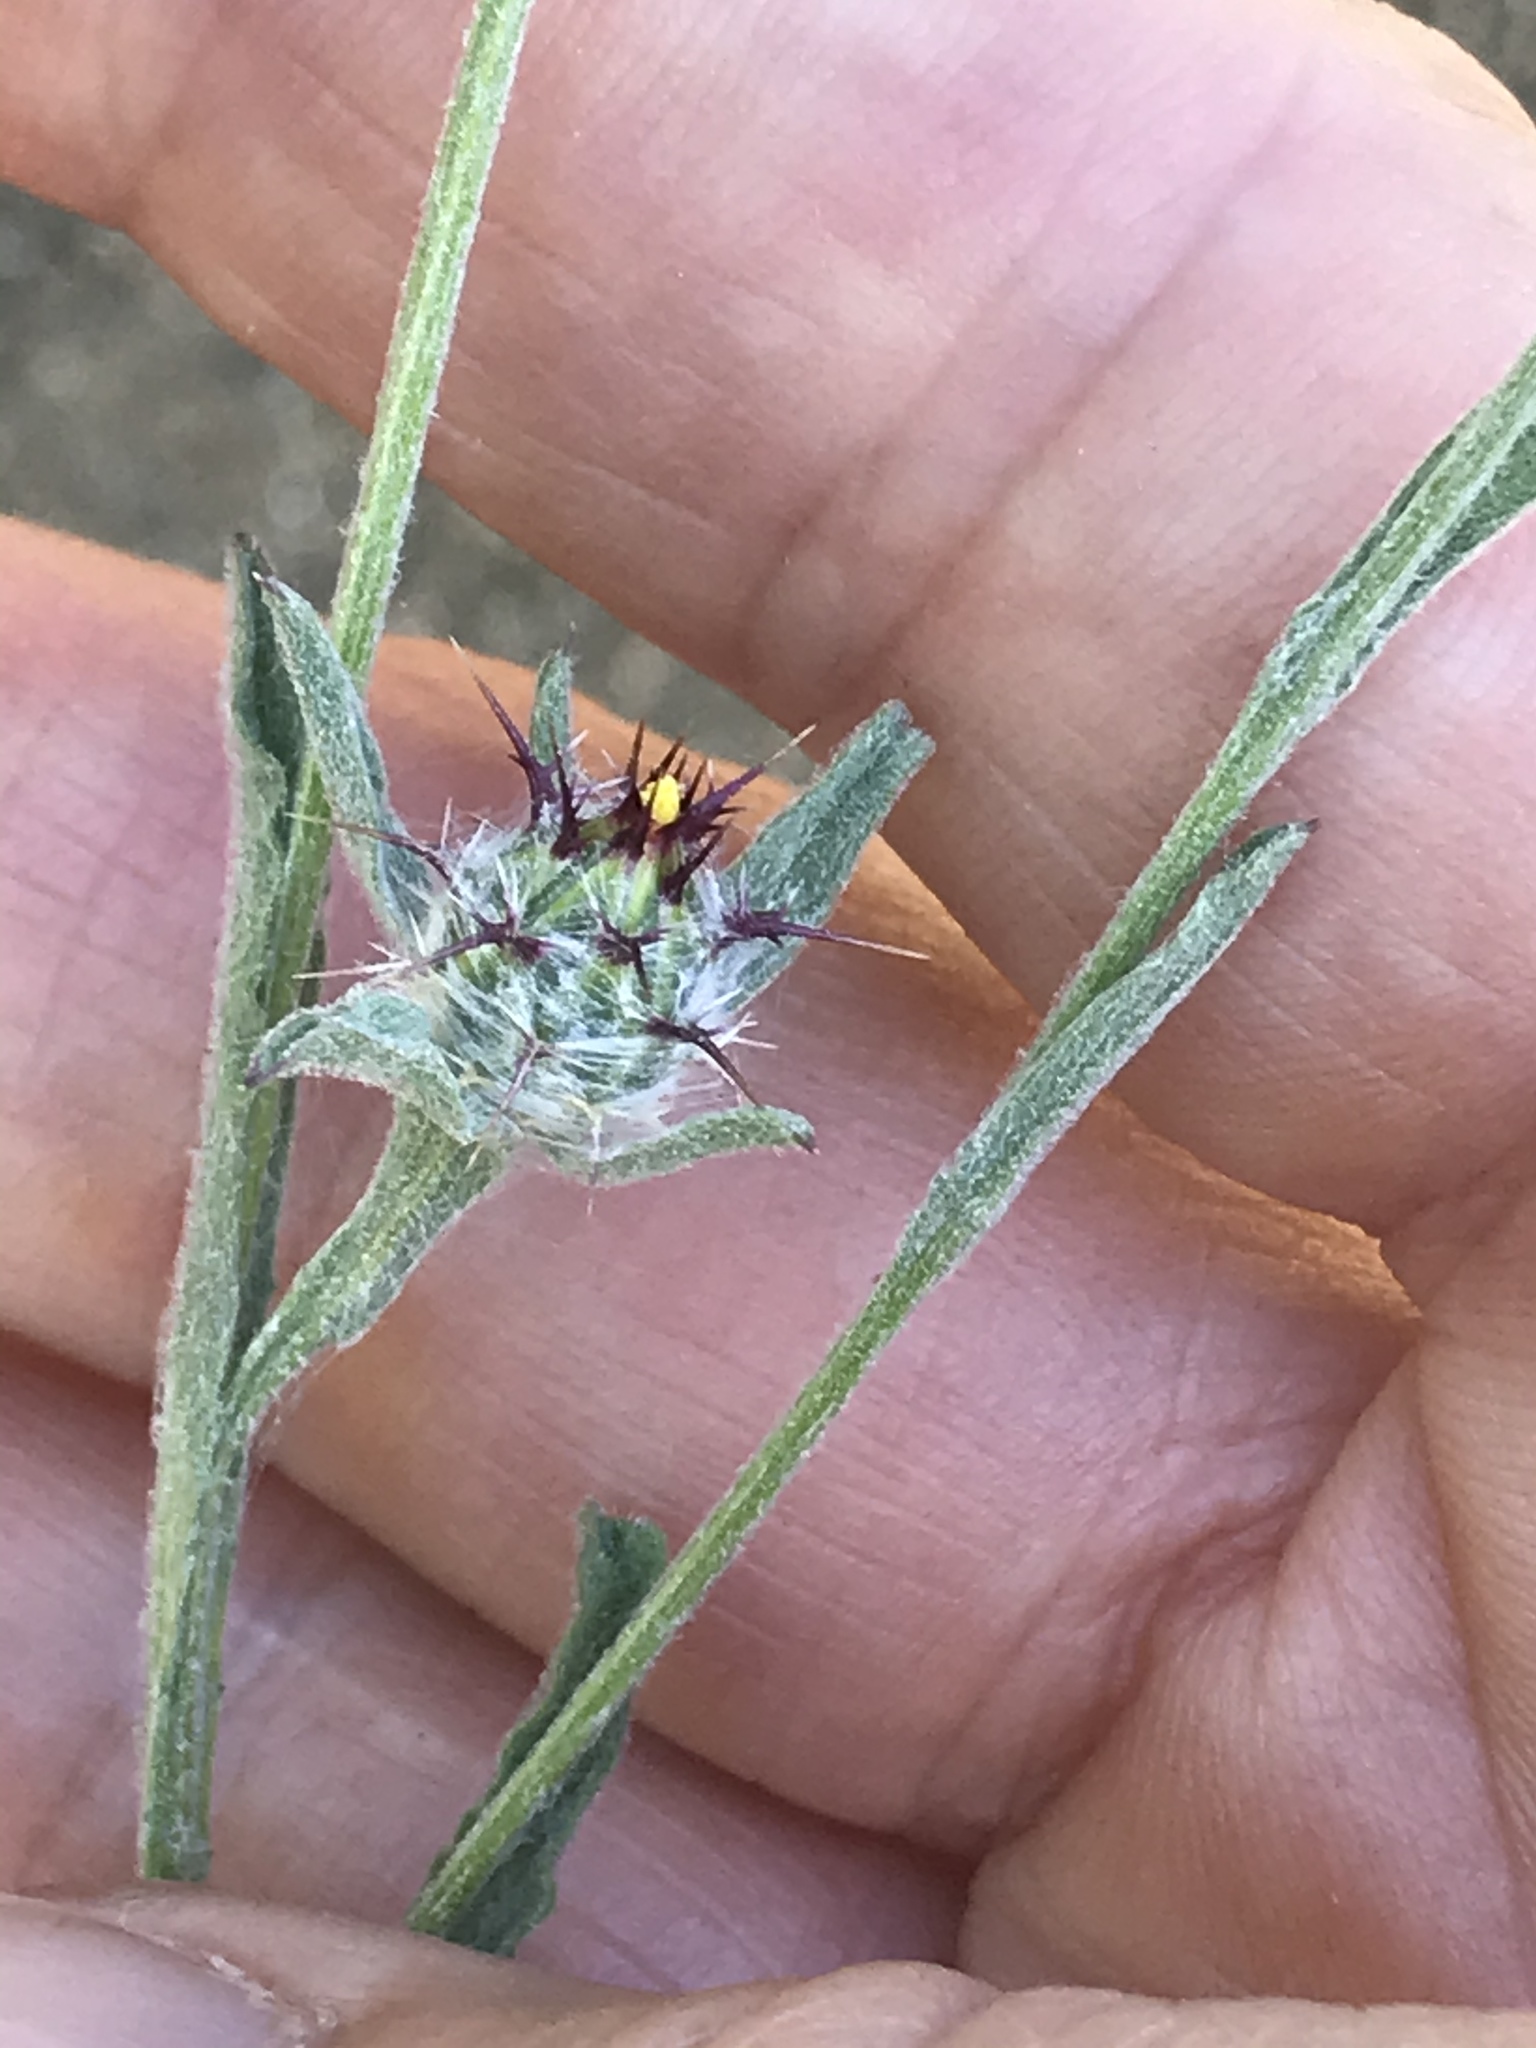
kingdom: Plantae
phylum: Tracheophyta
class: Magnoliopsida
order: Asterales
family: Asteraceae
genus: Centaurea
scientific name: Centaurea melitensis
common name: Maltese star-thistle
